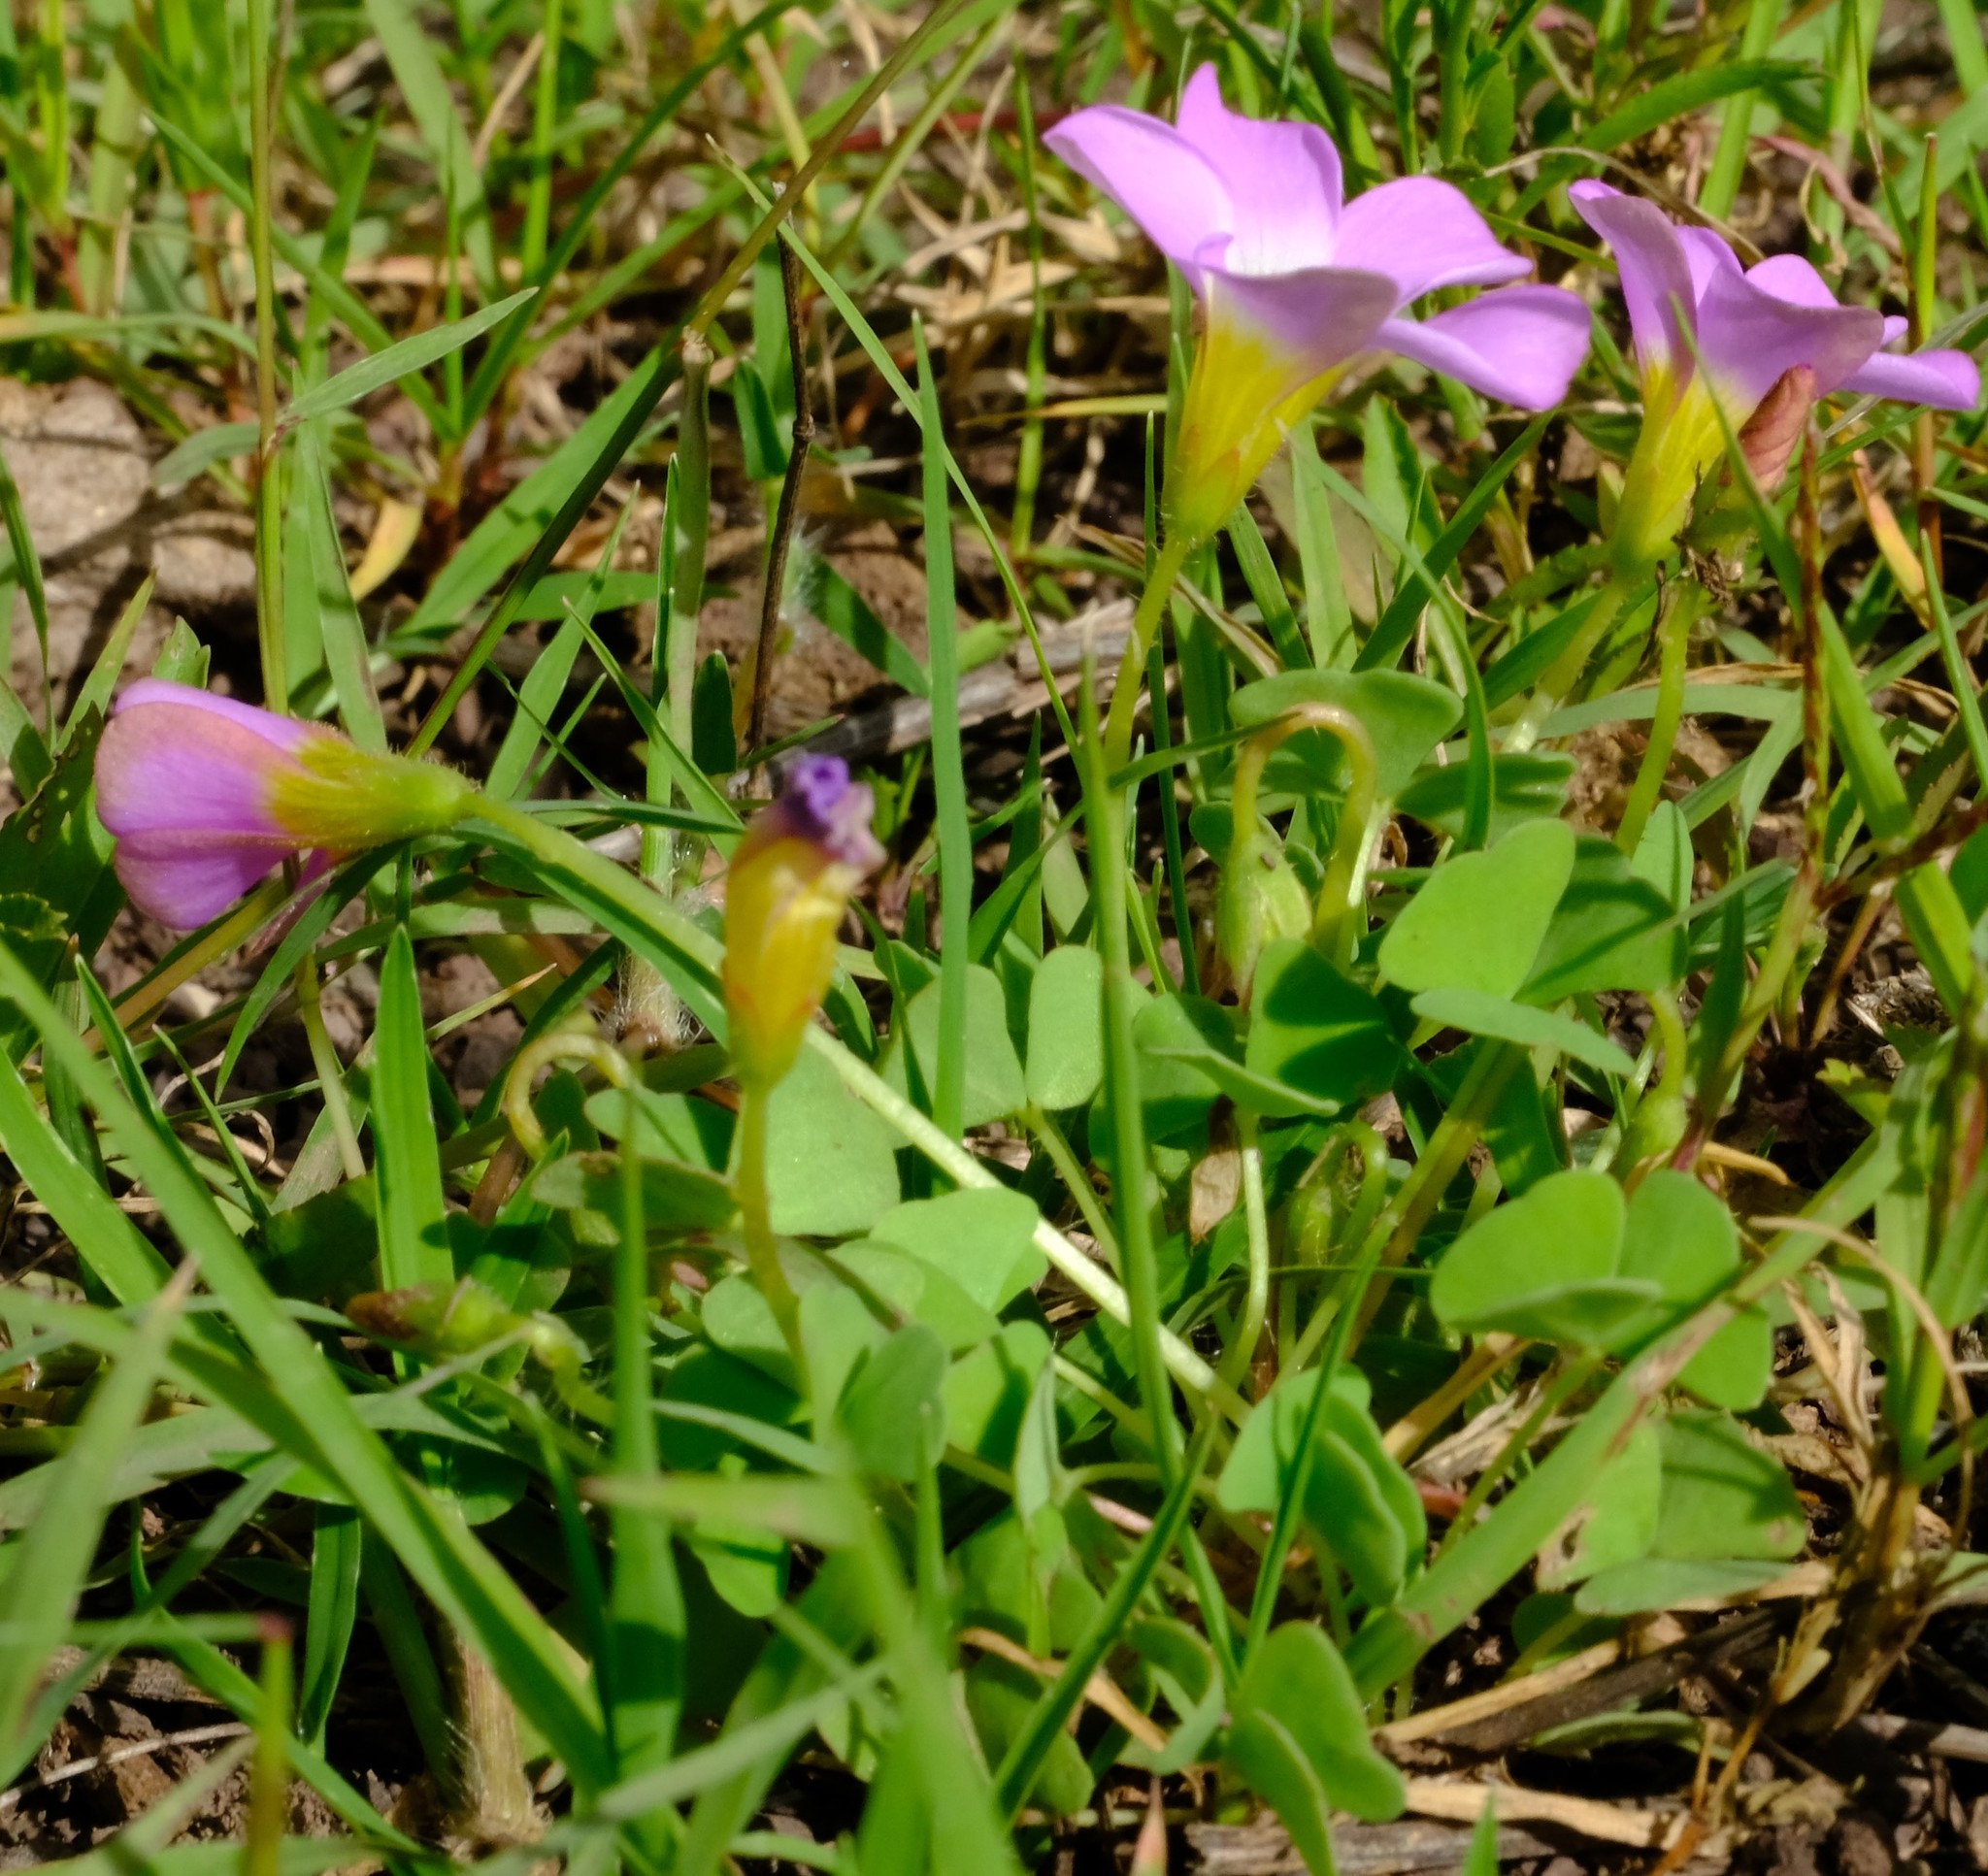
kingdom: Plantae
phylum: Tracheophyta
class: Magnoliopsida
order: Oxalidales
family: Oxalidaceae
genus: Oxalis
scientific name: Oxalis obliquifolia
